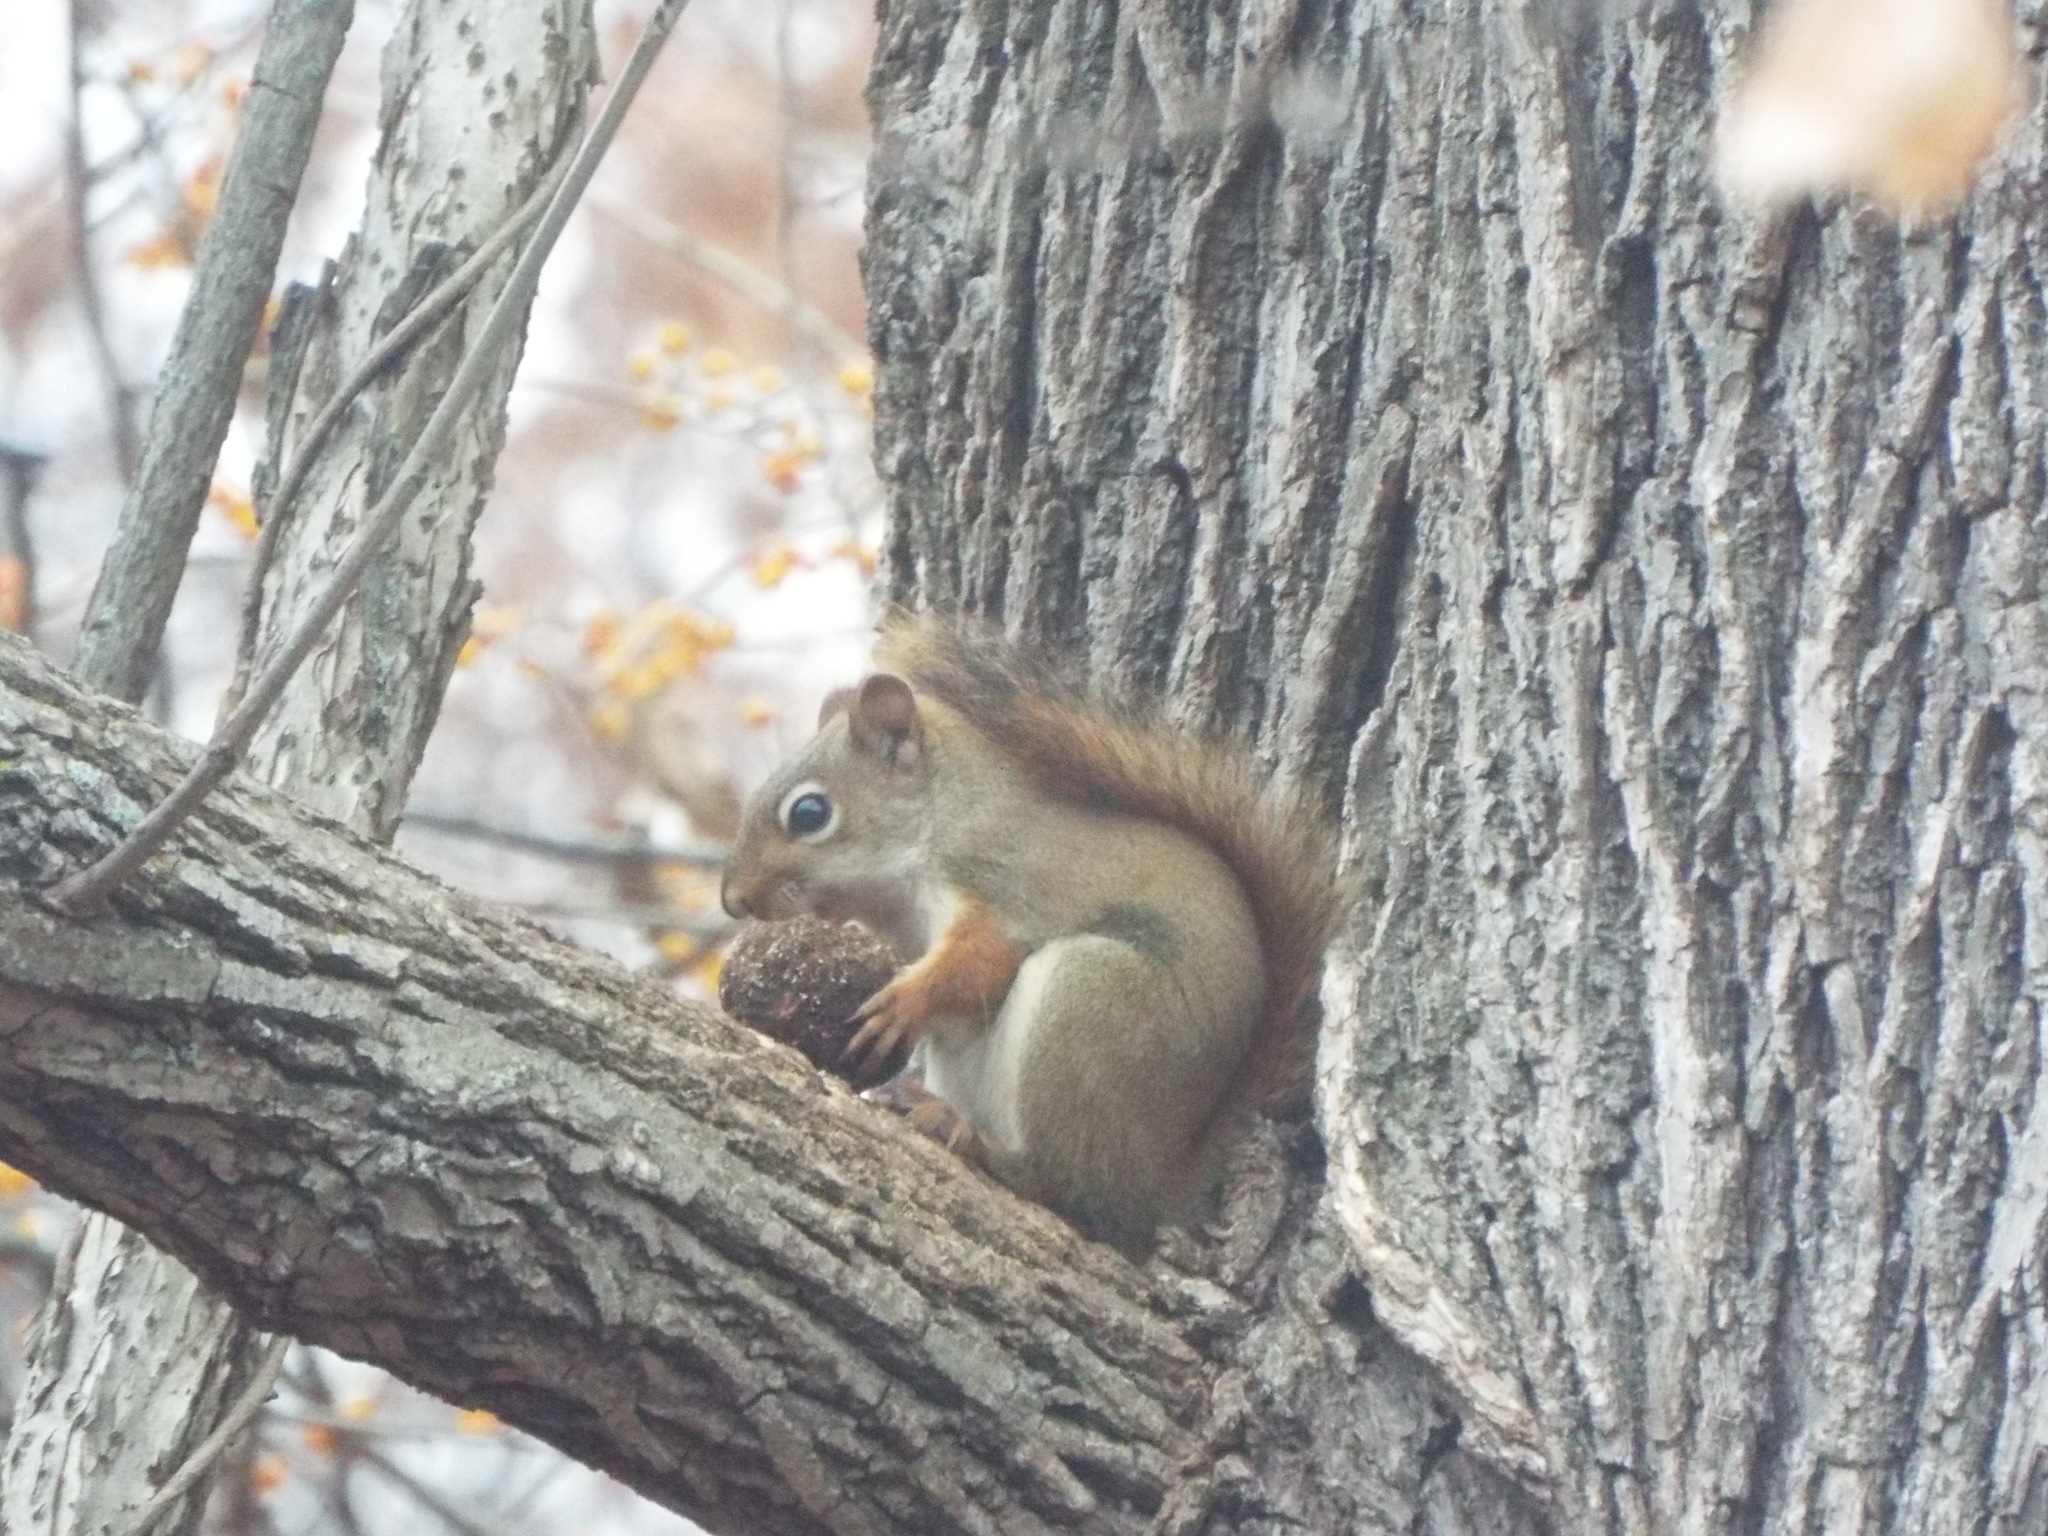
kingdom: Animalia
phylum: Chordata
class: Mammalia
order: Rodentia
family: Sciuridae
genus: Tamiasciurus
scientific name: Tamiasciurus hudsonicus
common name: Red squirrel
